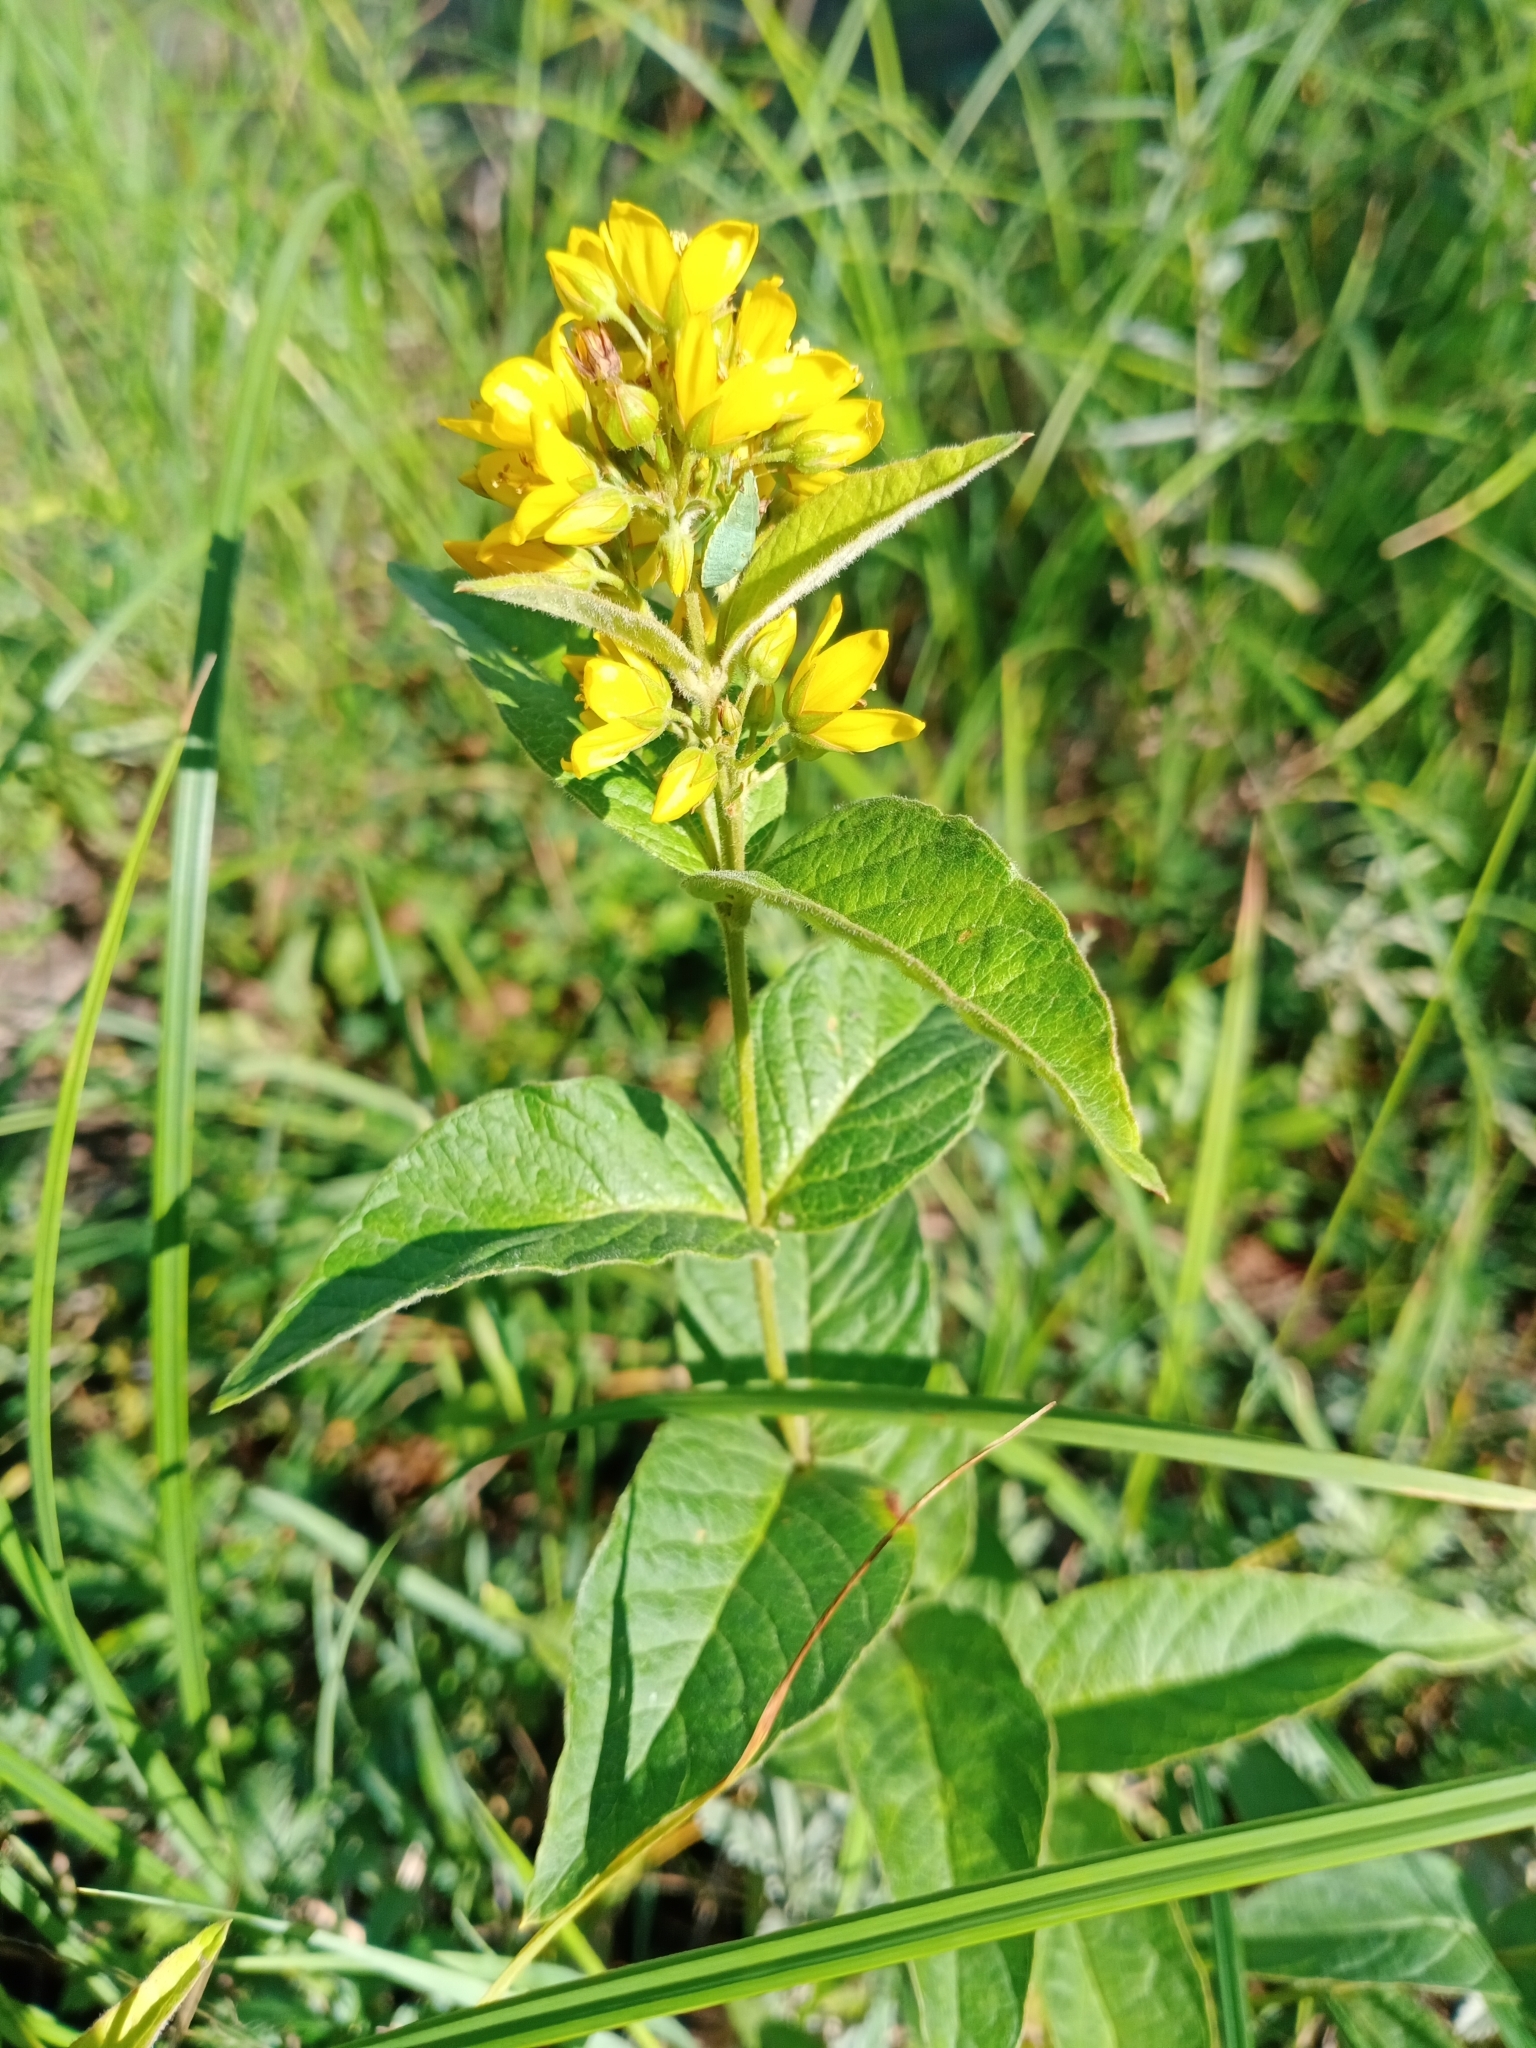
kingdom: Plantae
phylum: Tracheophyta
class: Magnoliopsida
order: Ericales
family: Primulaceae
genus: Lysimachia
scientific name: Lysimachia vulgaris
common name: Yellow loosestrife
